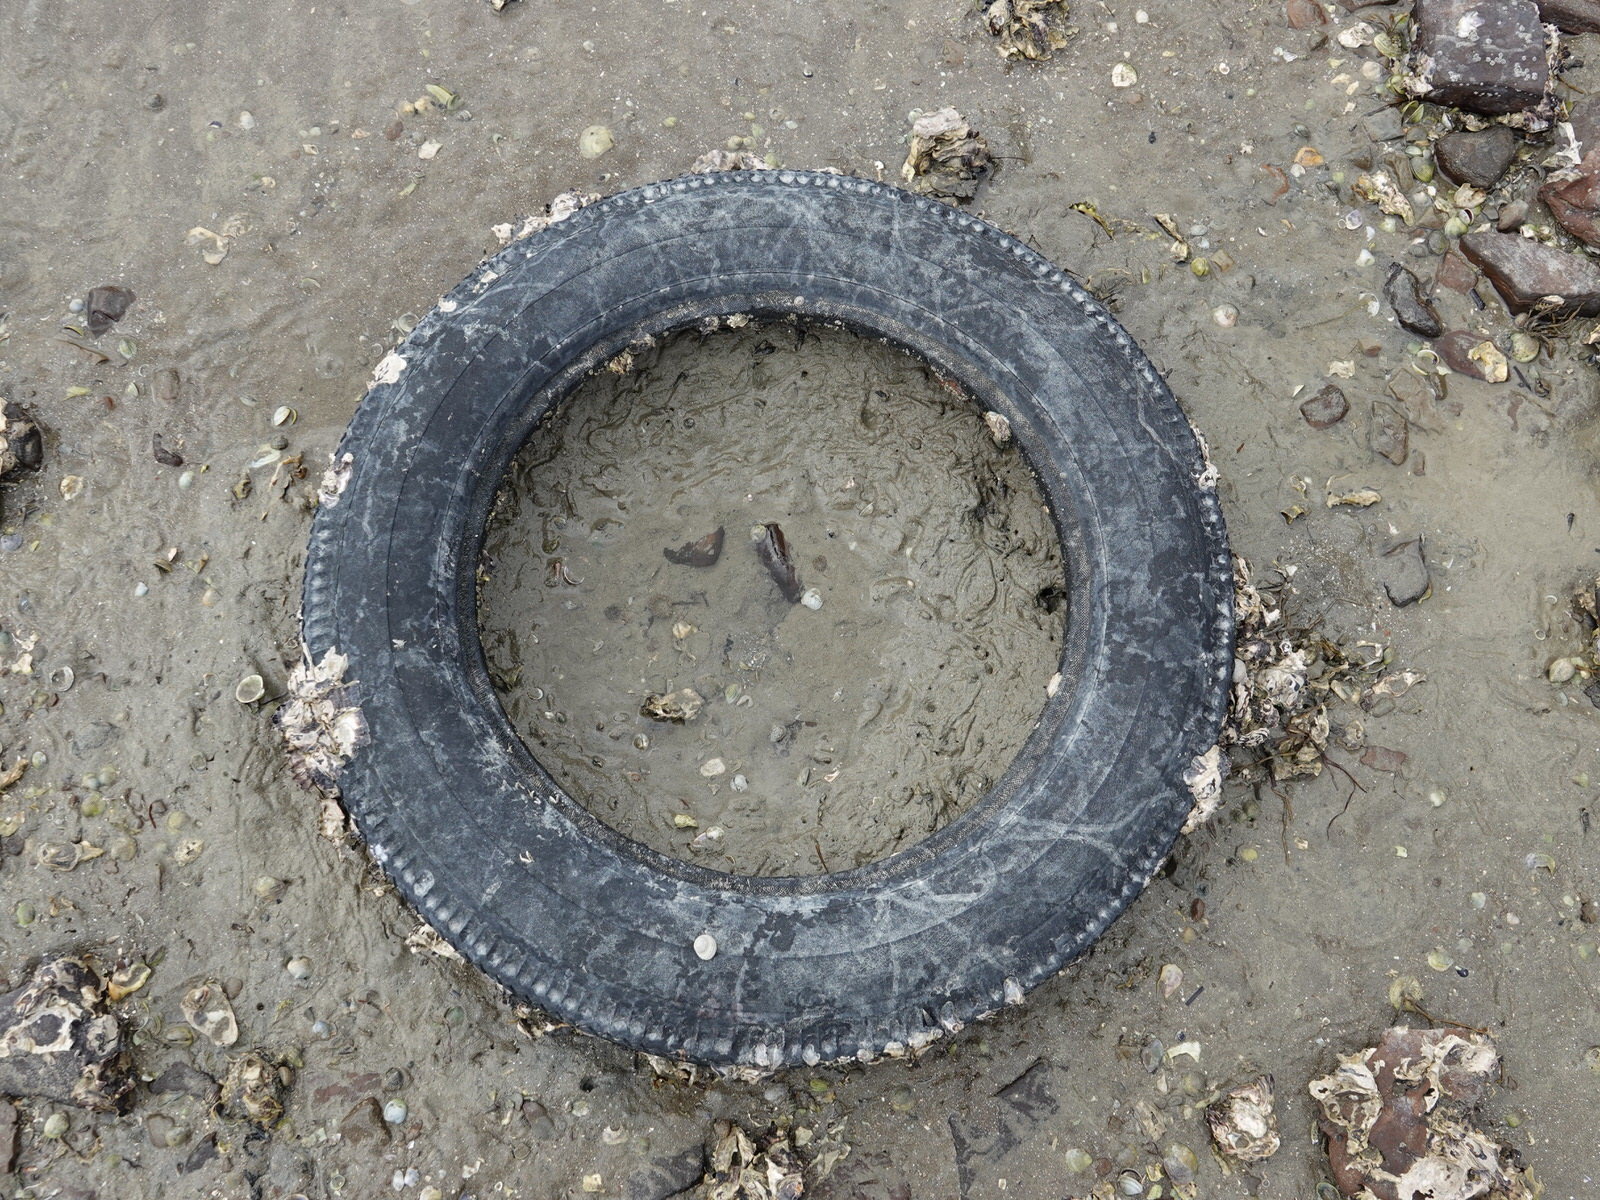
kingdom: Animalia
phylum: Mollusca
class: Bivalvia
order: Ostreida
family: Ostreidae
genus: Saccostrea
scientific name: Saccostrea glomerata
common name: Sydney cupped oyster
